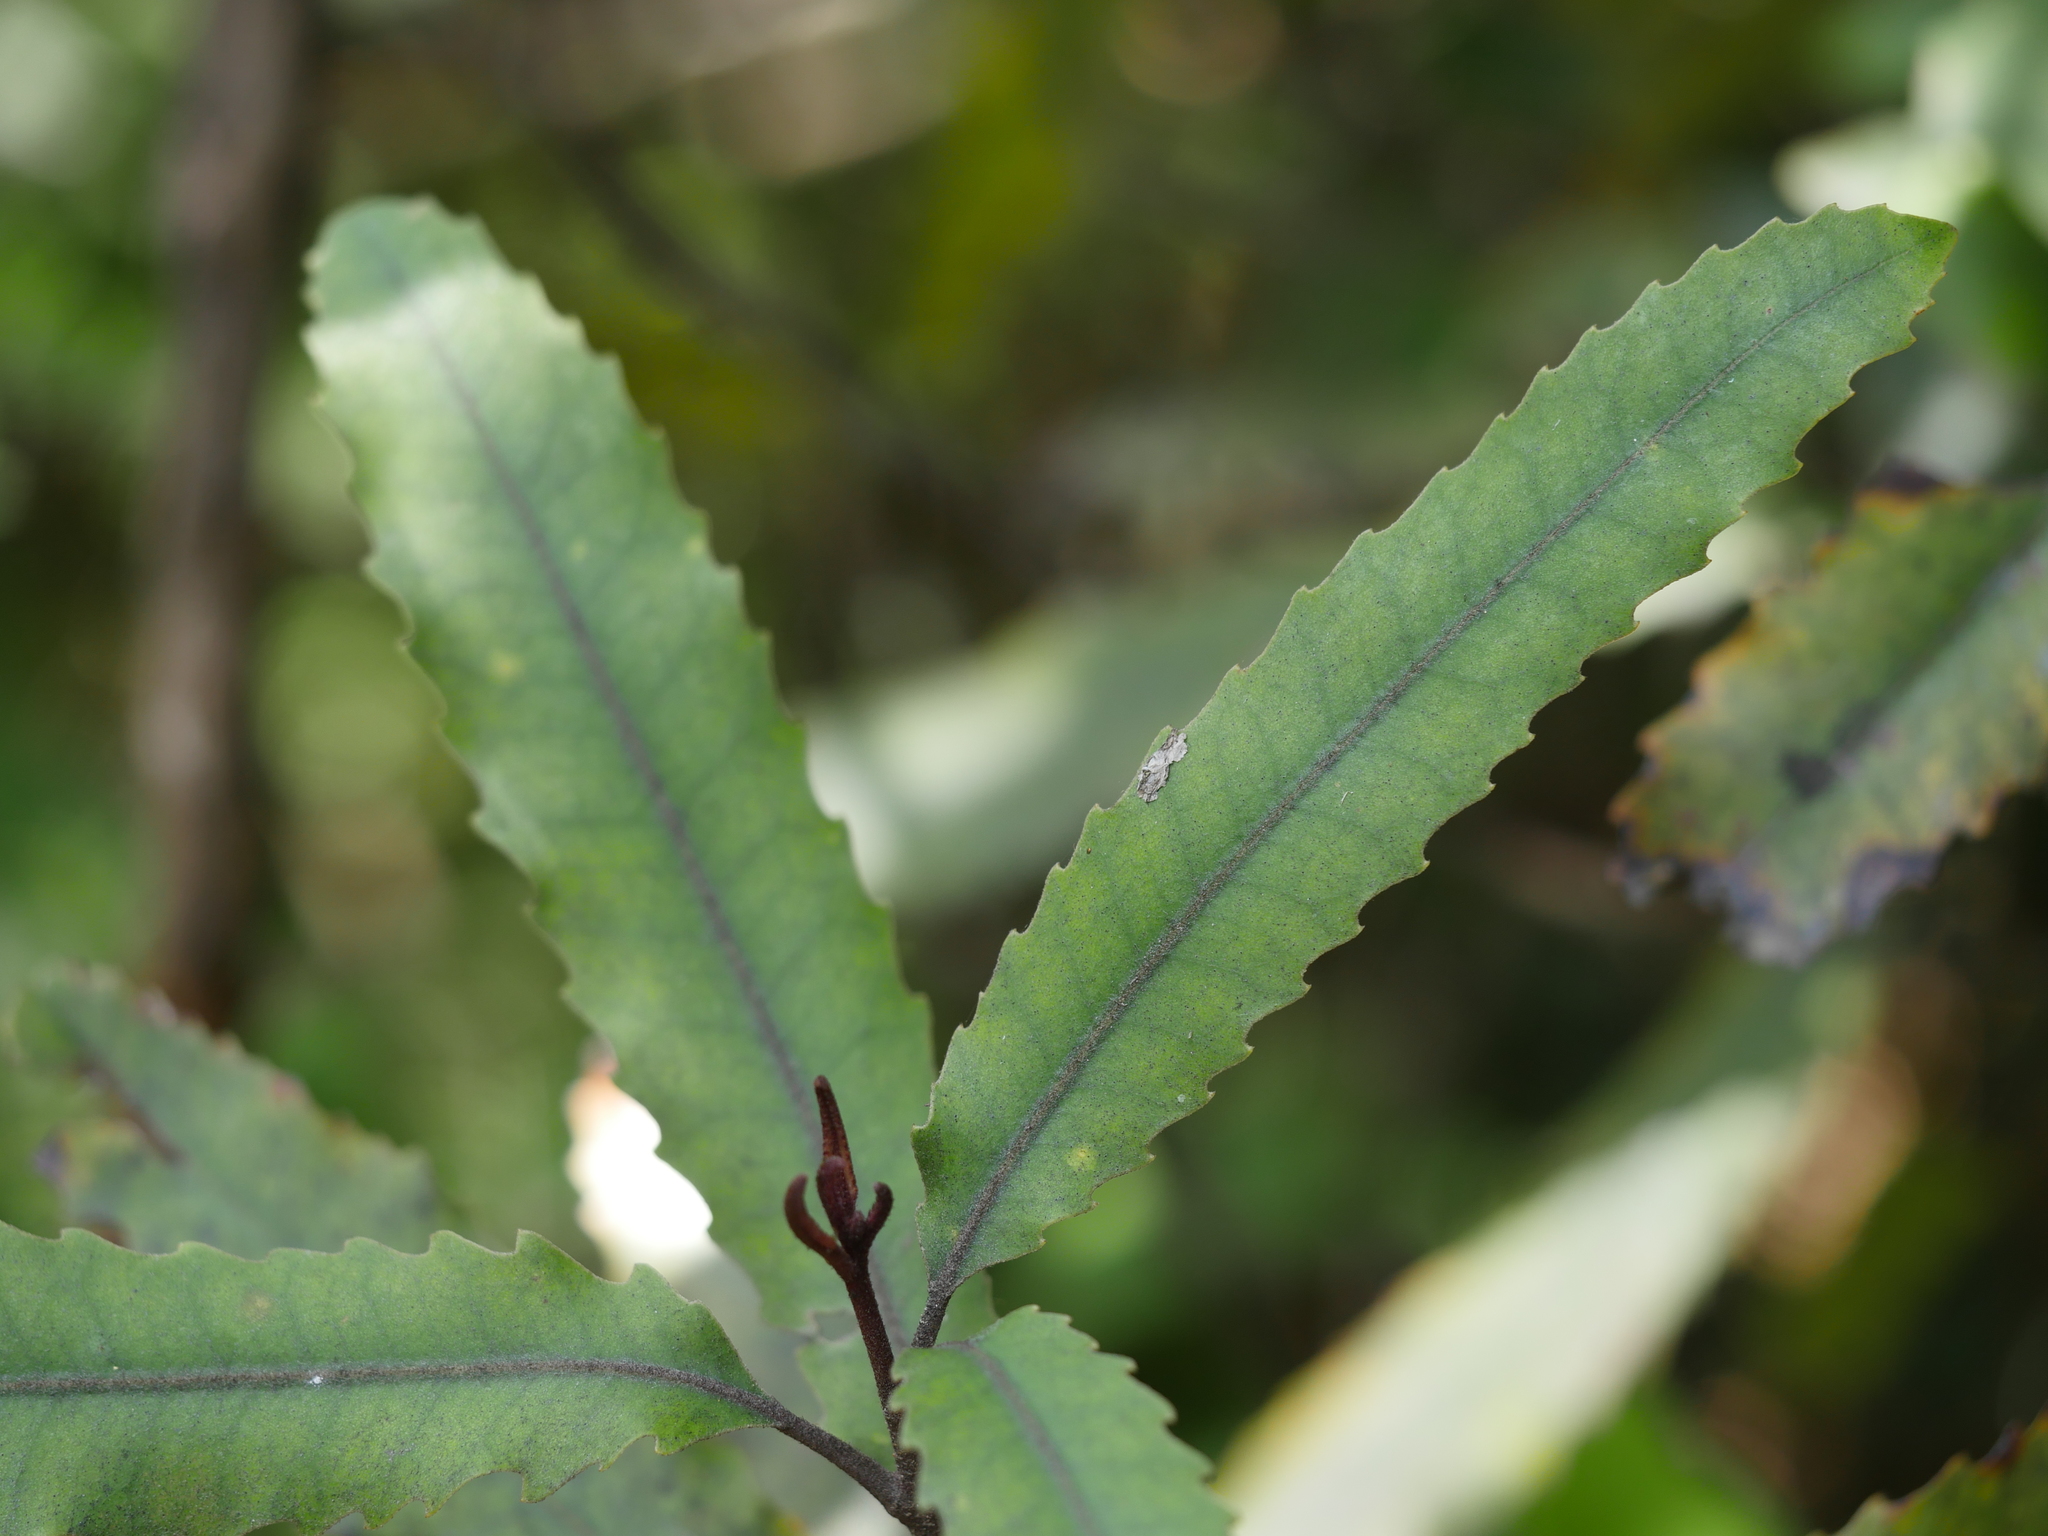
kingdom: Plantae
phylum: Tracheophyta
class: Magnoliopsida
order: Proteales
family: Proteaceae
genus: Knightia
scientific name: Knightia excelsa
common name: New zealand-honeysuckle
